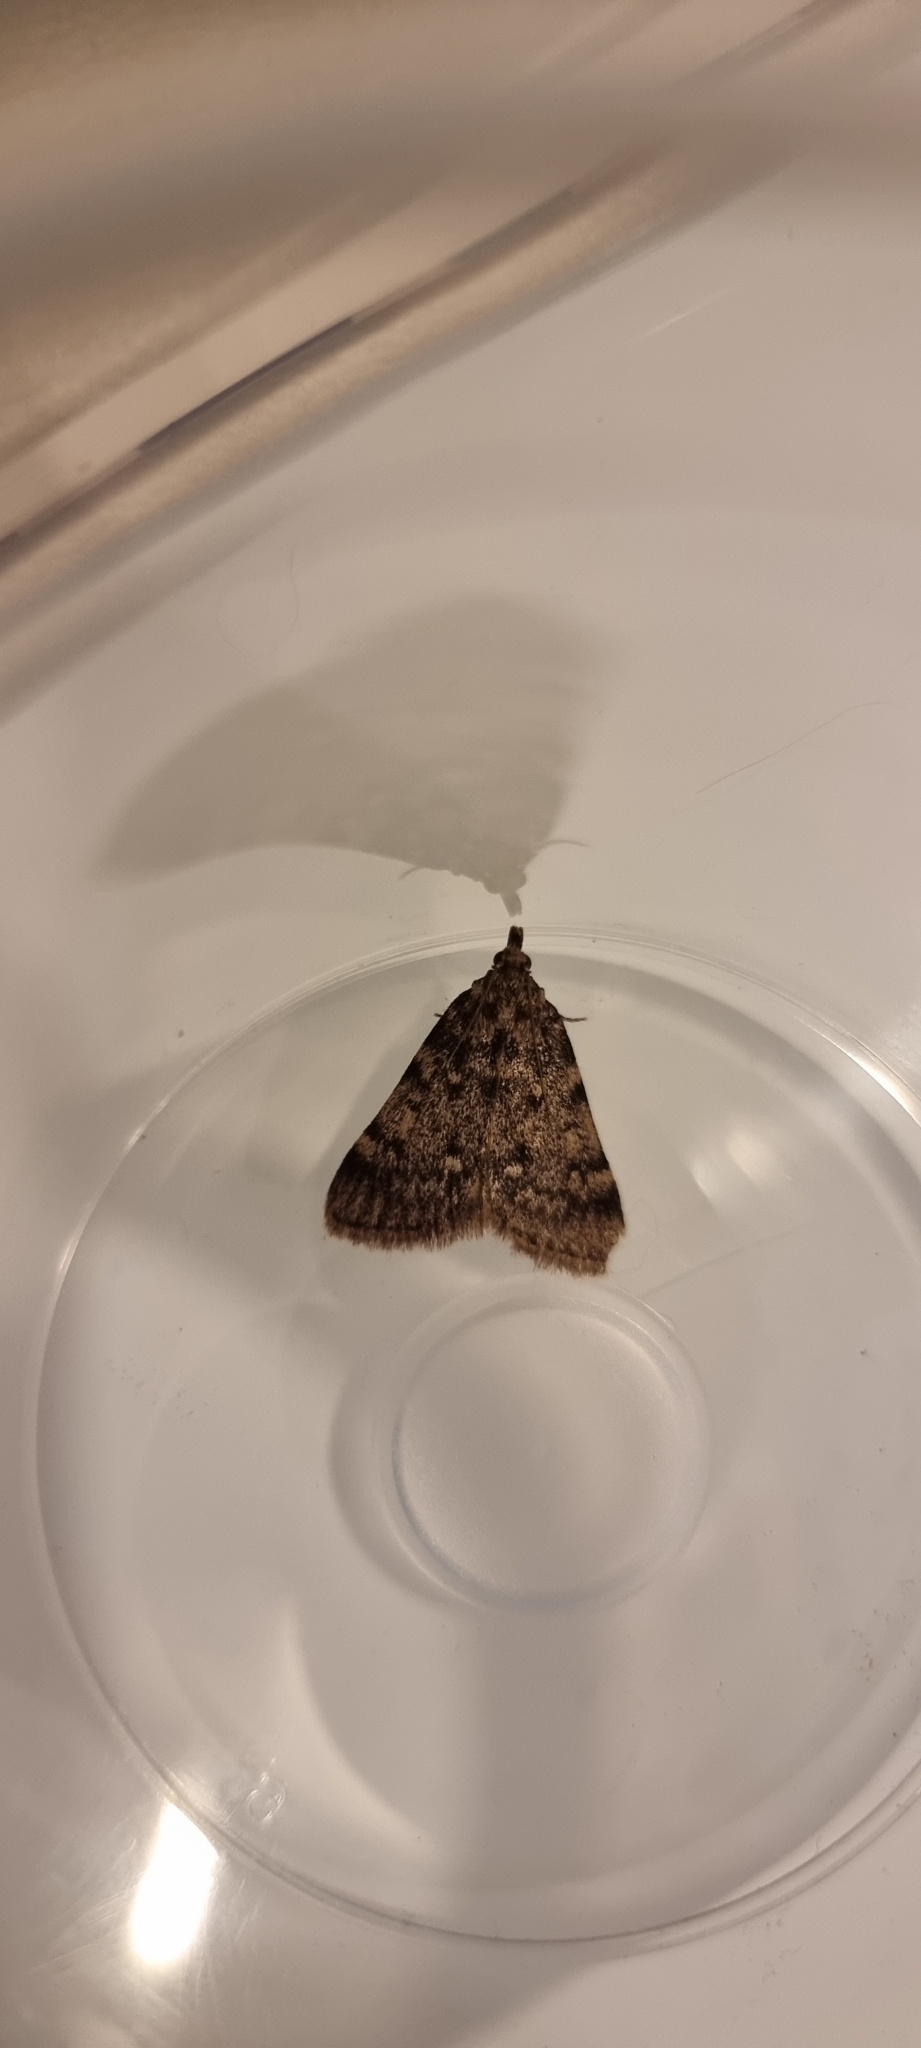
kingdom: Animalia
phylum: Arthropoda
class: Insecta
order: Lepidoptera
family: Pyralidae
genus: Aglossa
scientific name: Aglossa pinguinalis
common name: Large tabby
